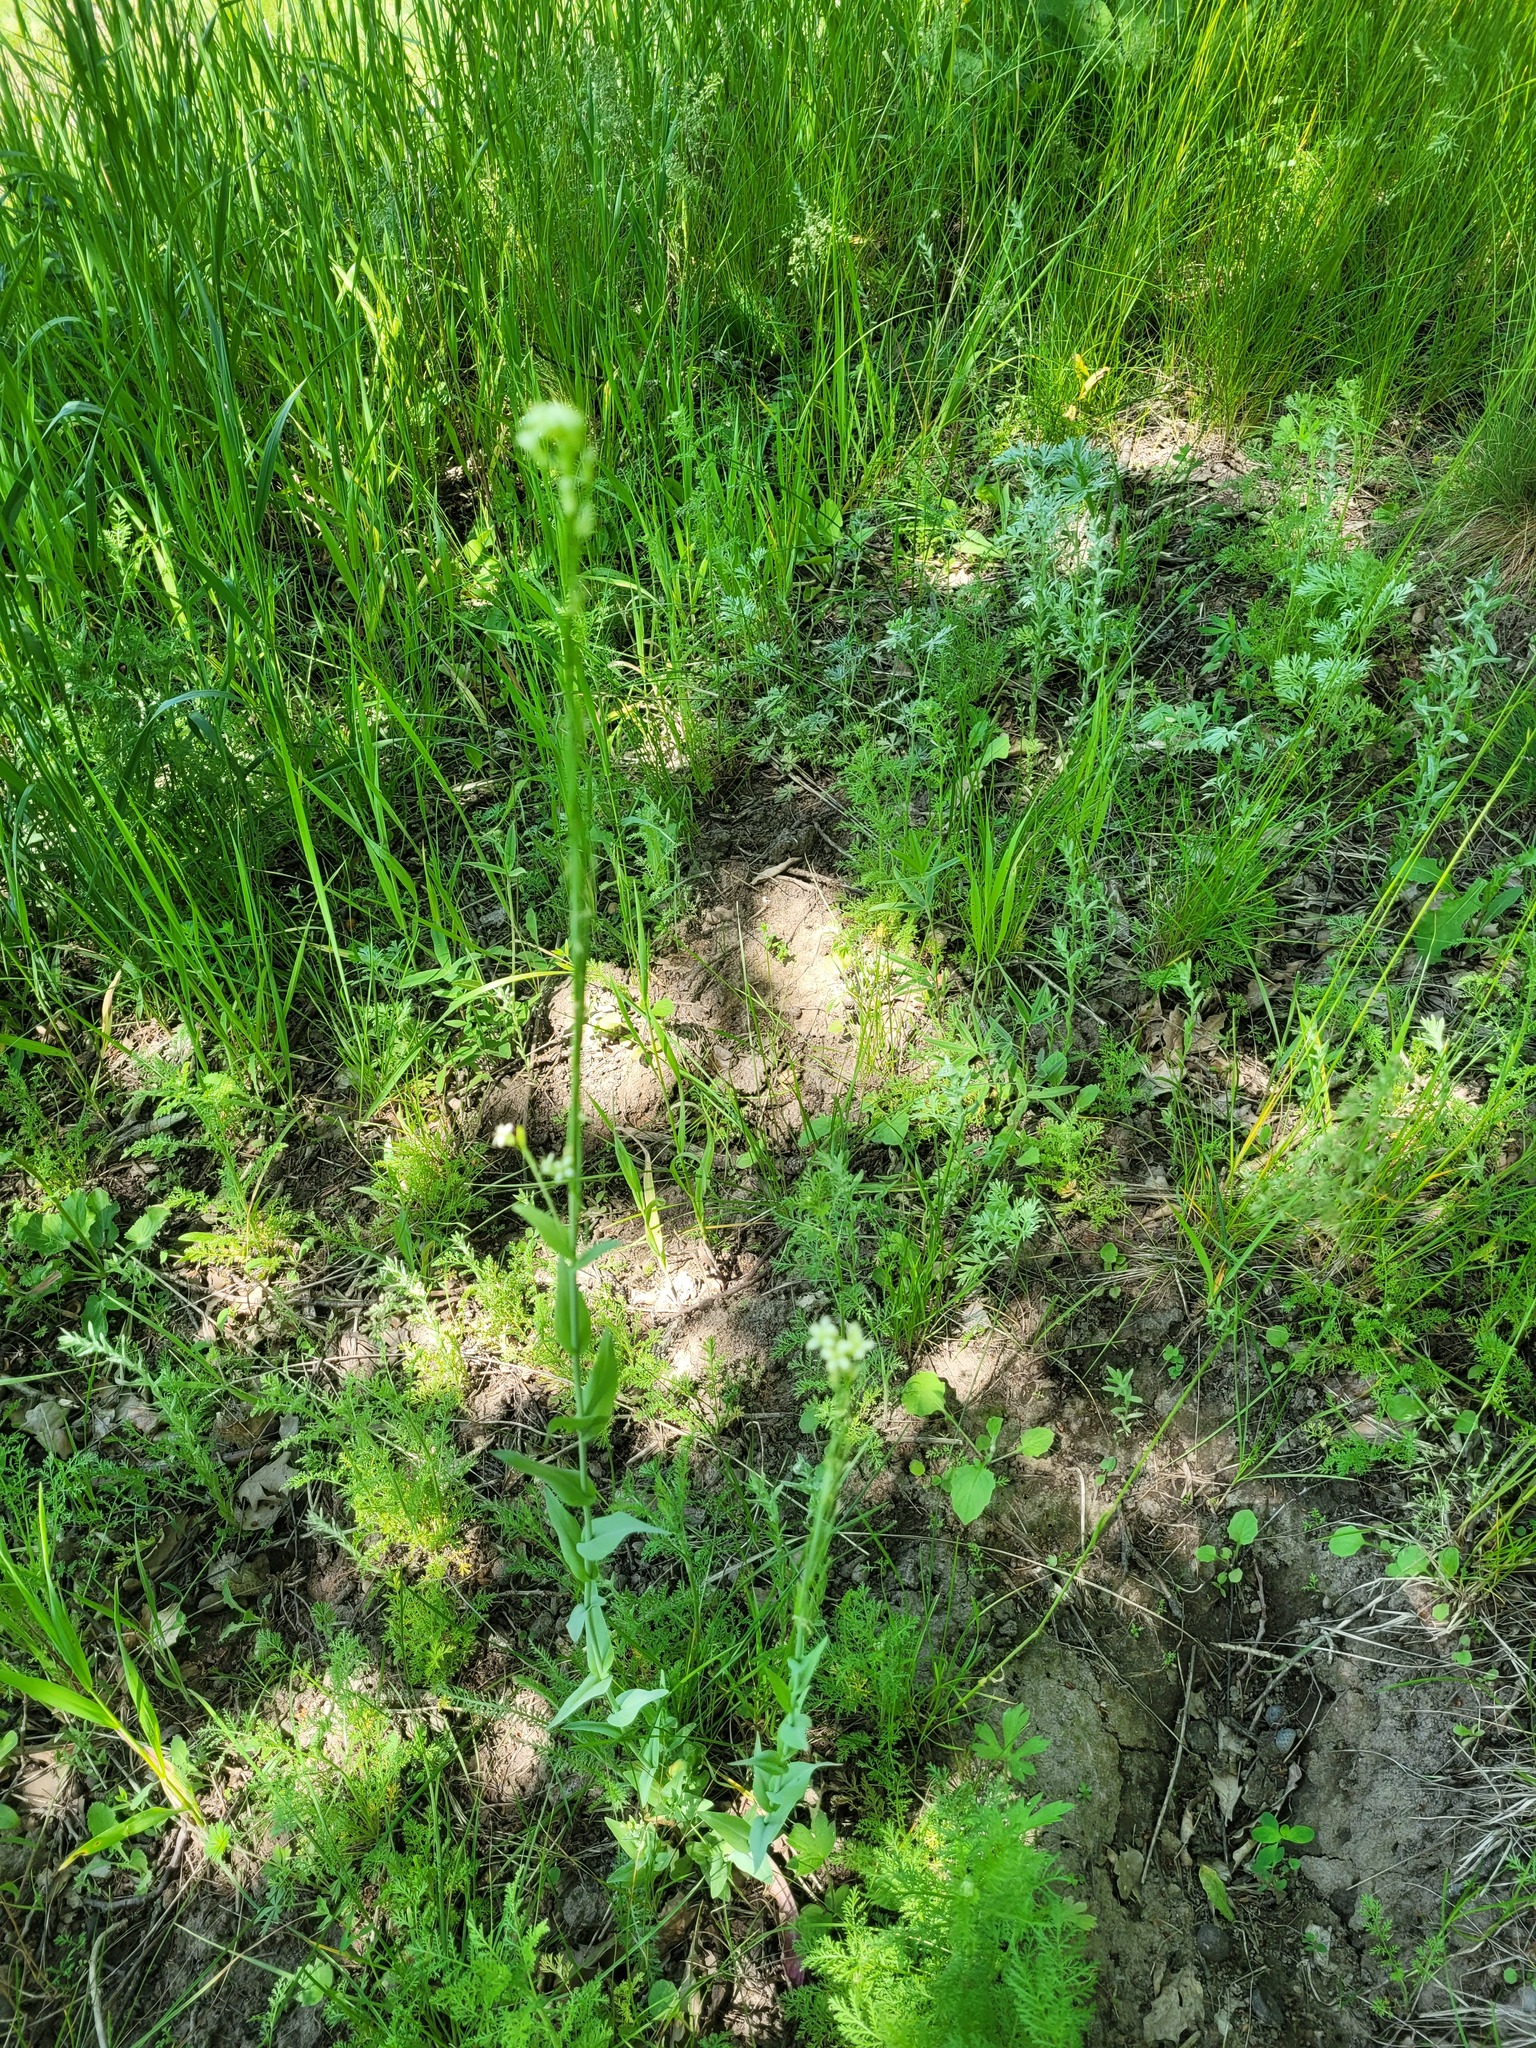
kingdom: Plantae
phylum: Tracheophyta
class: Magnoliopsida
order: Brassicales
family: Brassicaceae
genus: Turritis
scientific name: Turritis glabra
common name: Tower rockcress
